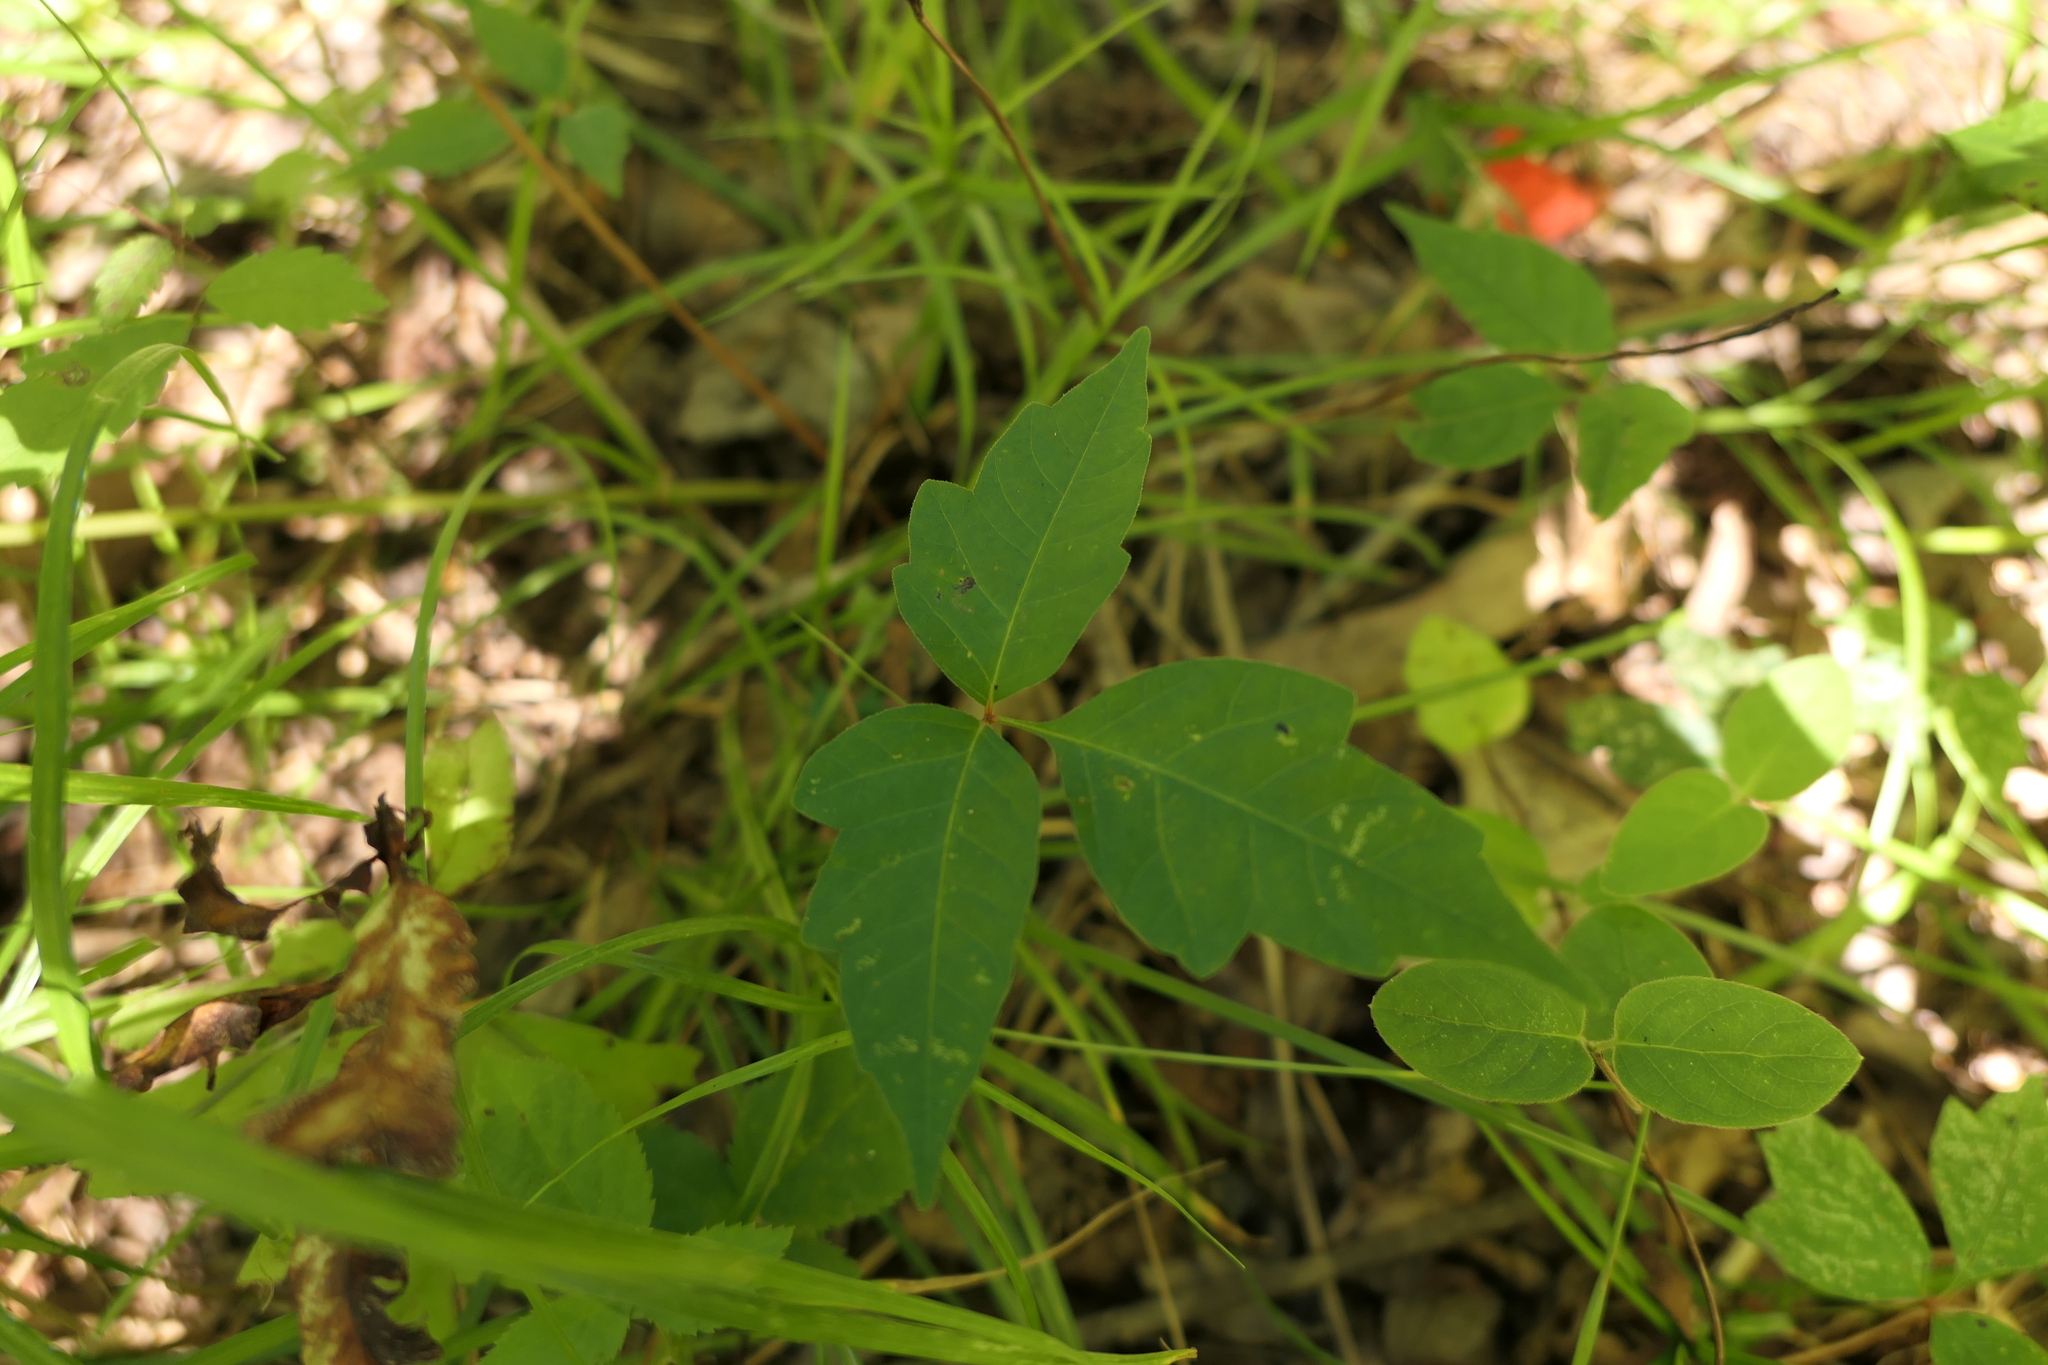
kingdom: Plantae
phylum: Tracheophyta
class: Magnoliopsida
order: Sapindales
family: Anacardiaceae
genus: Toxicodendron
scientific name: Toxicodendron radicans
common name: Poison ivy
